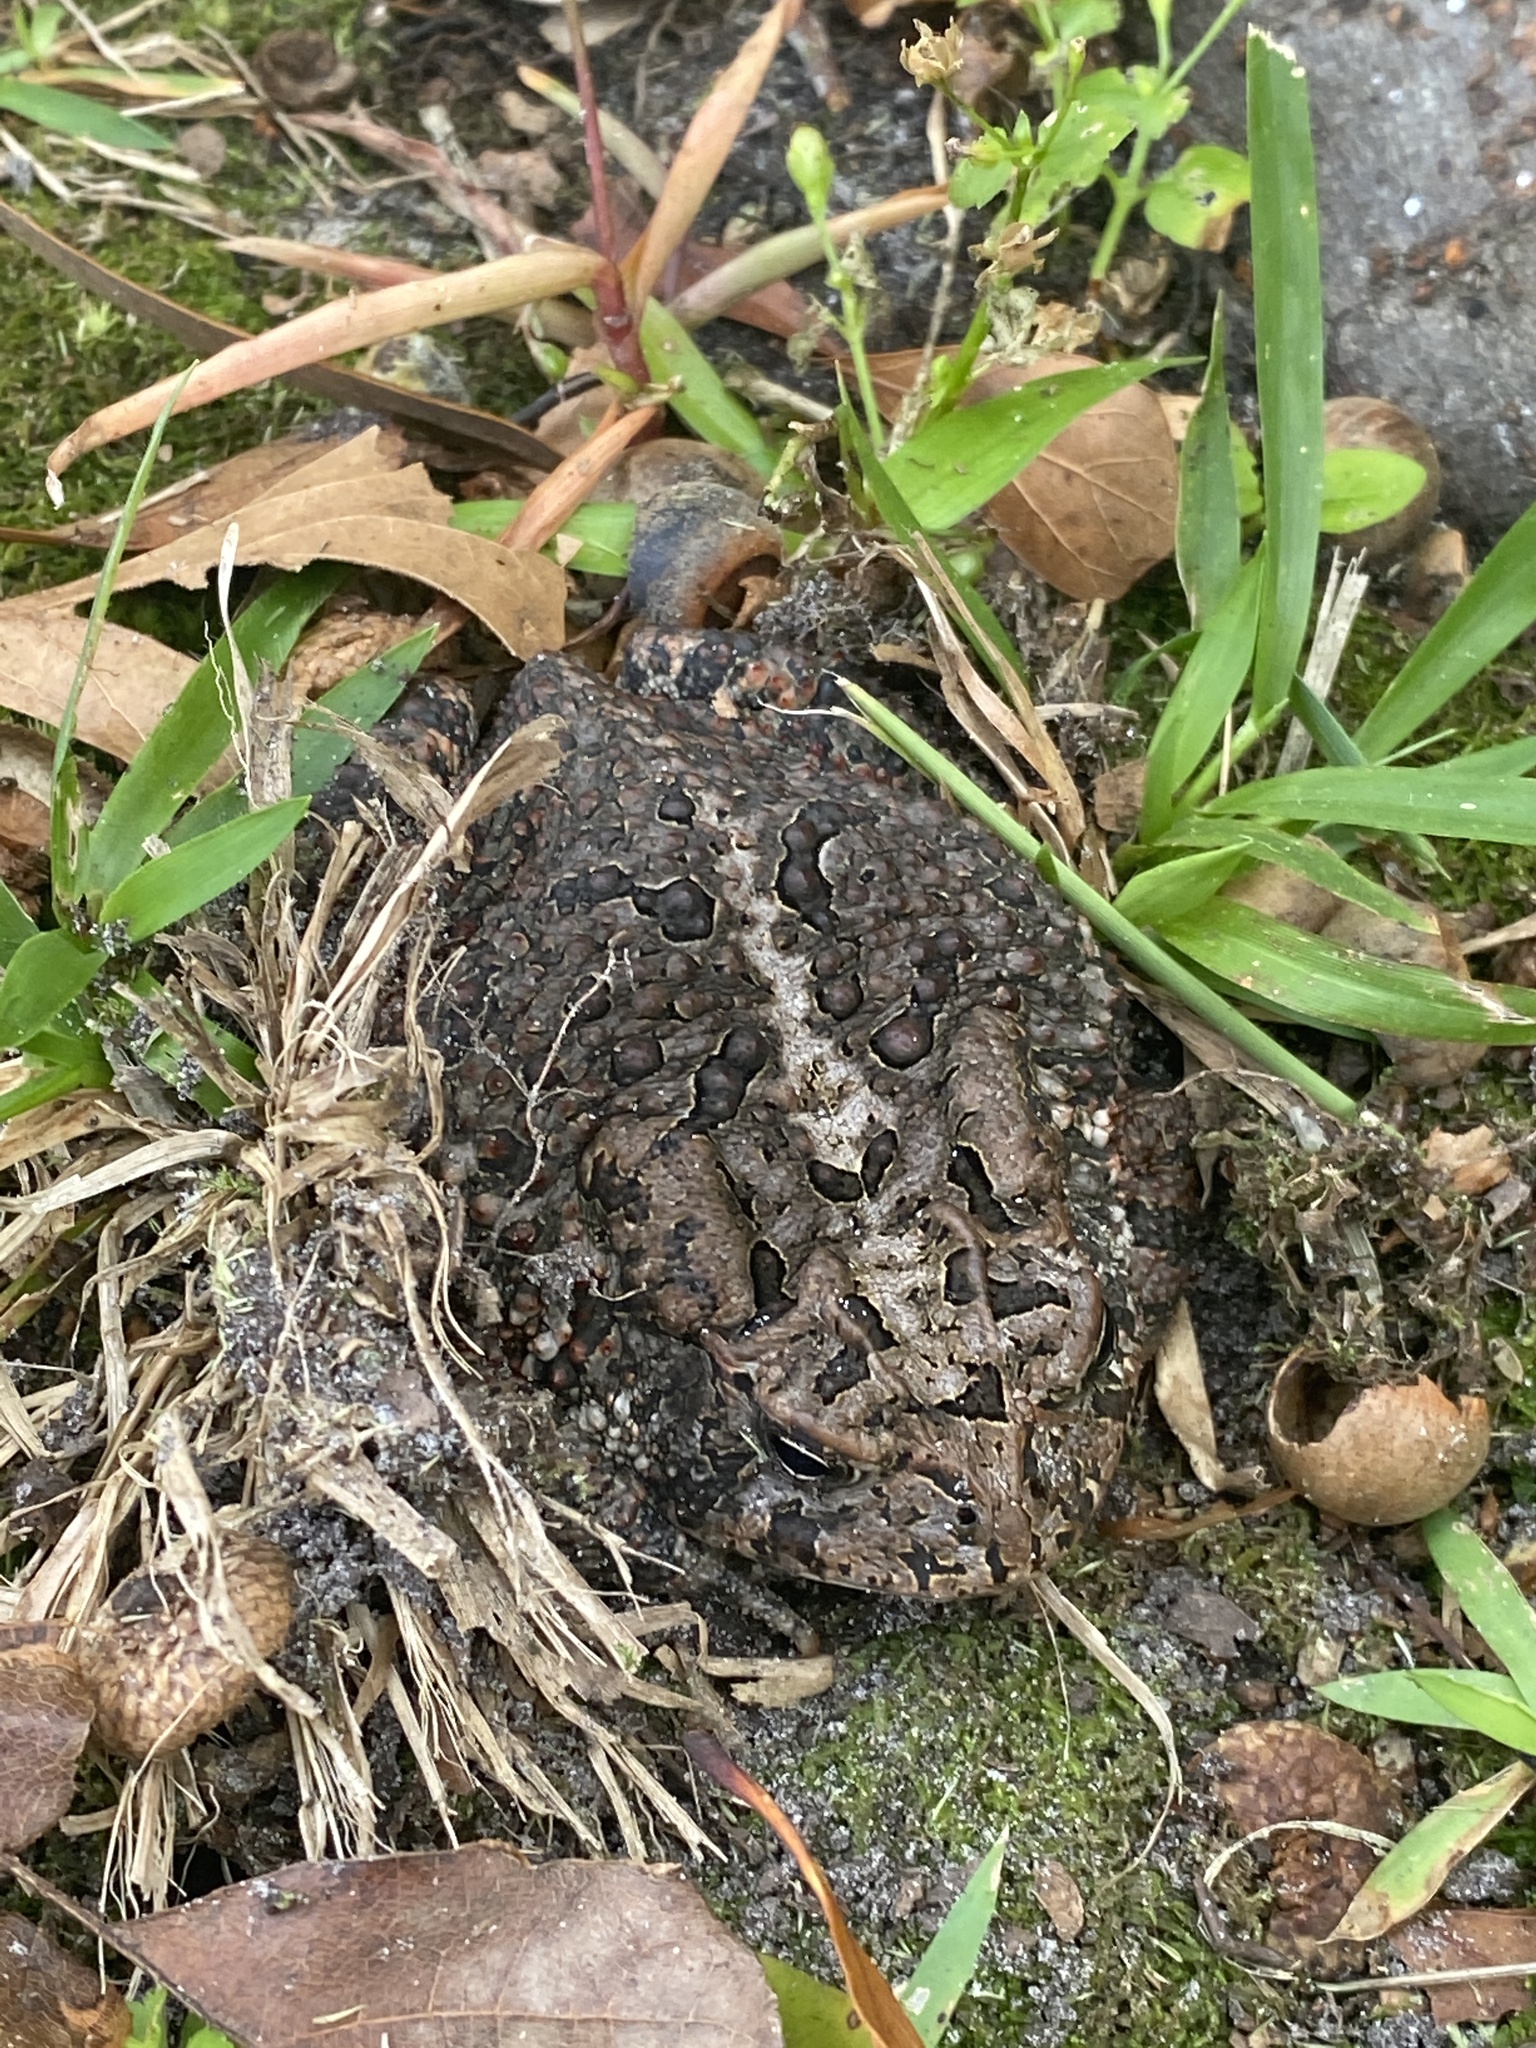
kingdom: Animalia
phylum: Chordata
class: Amphibia
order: Anura
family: Bufonidae
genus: Anaxyrus
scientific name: Anaxyrus terrestris
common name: Southern toad
